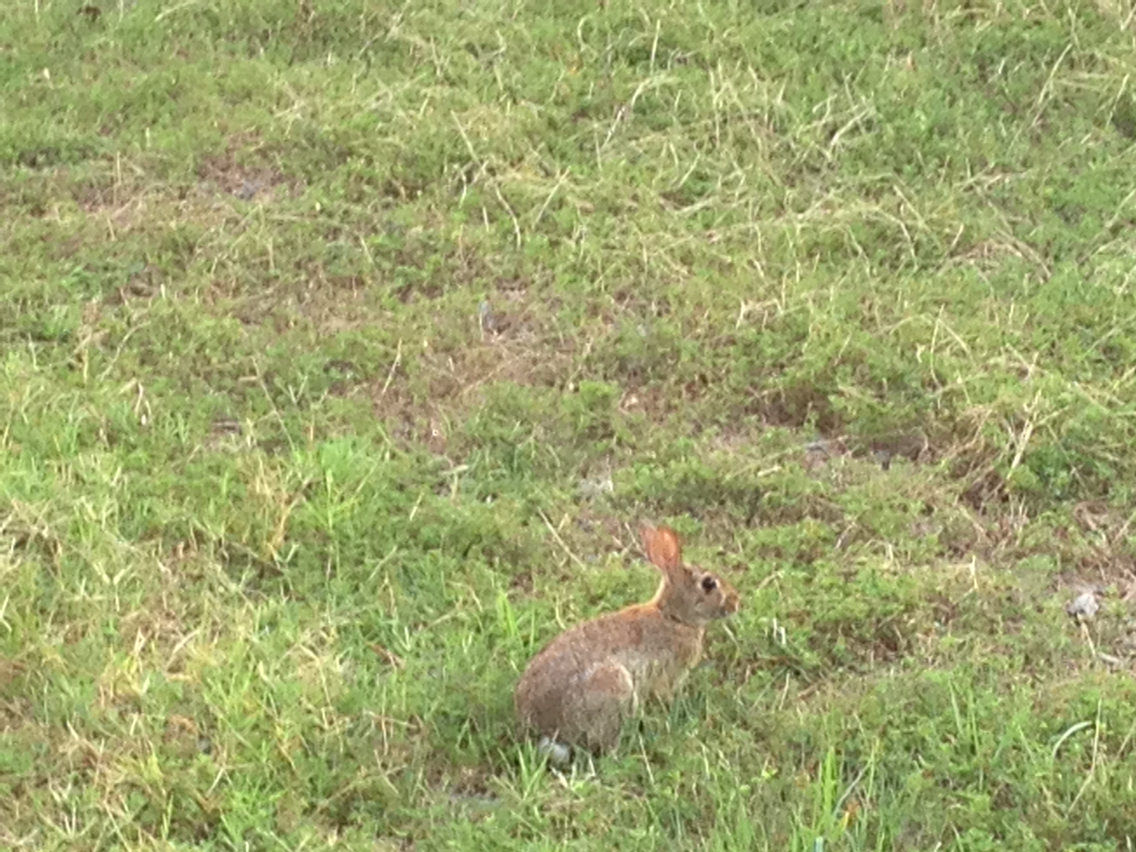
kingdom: Animalia
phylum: Chordata
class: Mammalia
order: Lagomorpha
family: Leporidae
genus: Sylvilagus
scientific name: Sylvilagus floridanus
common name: Eastern cottontail
